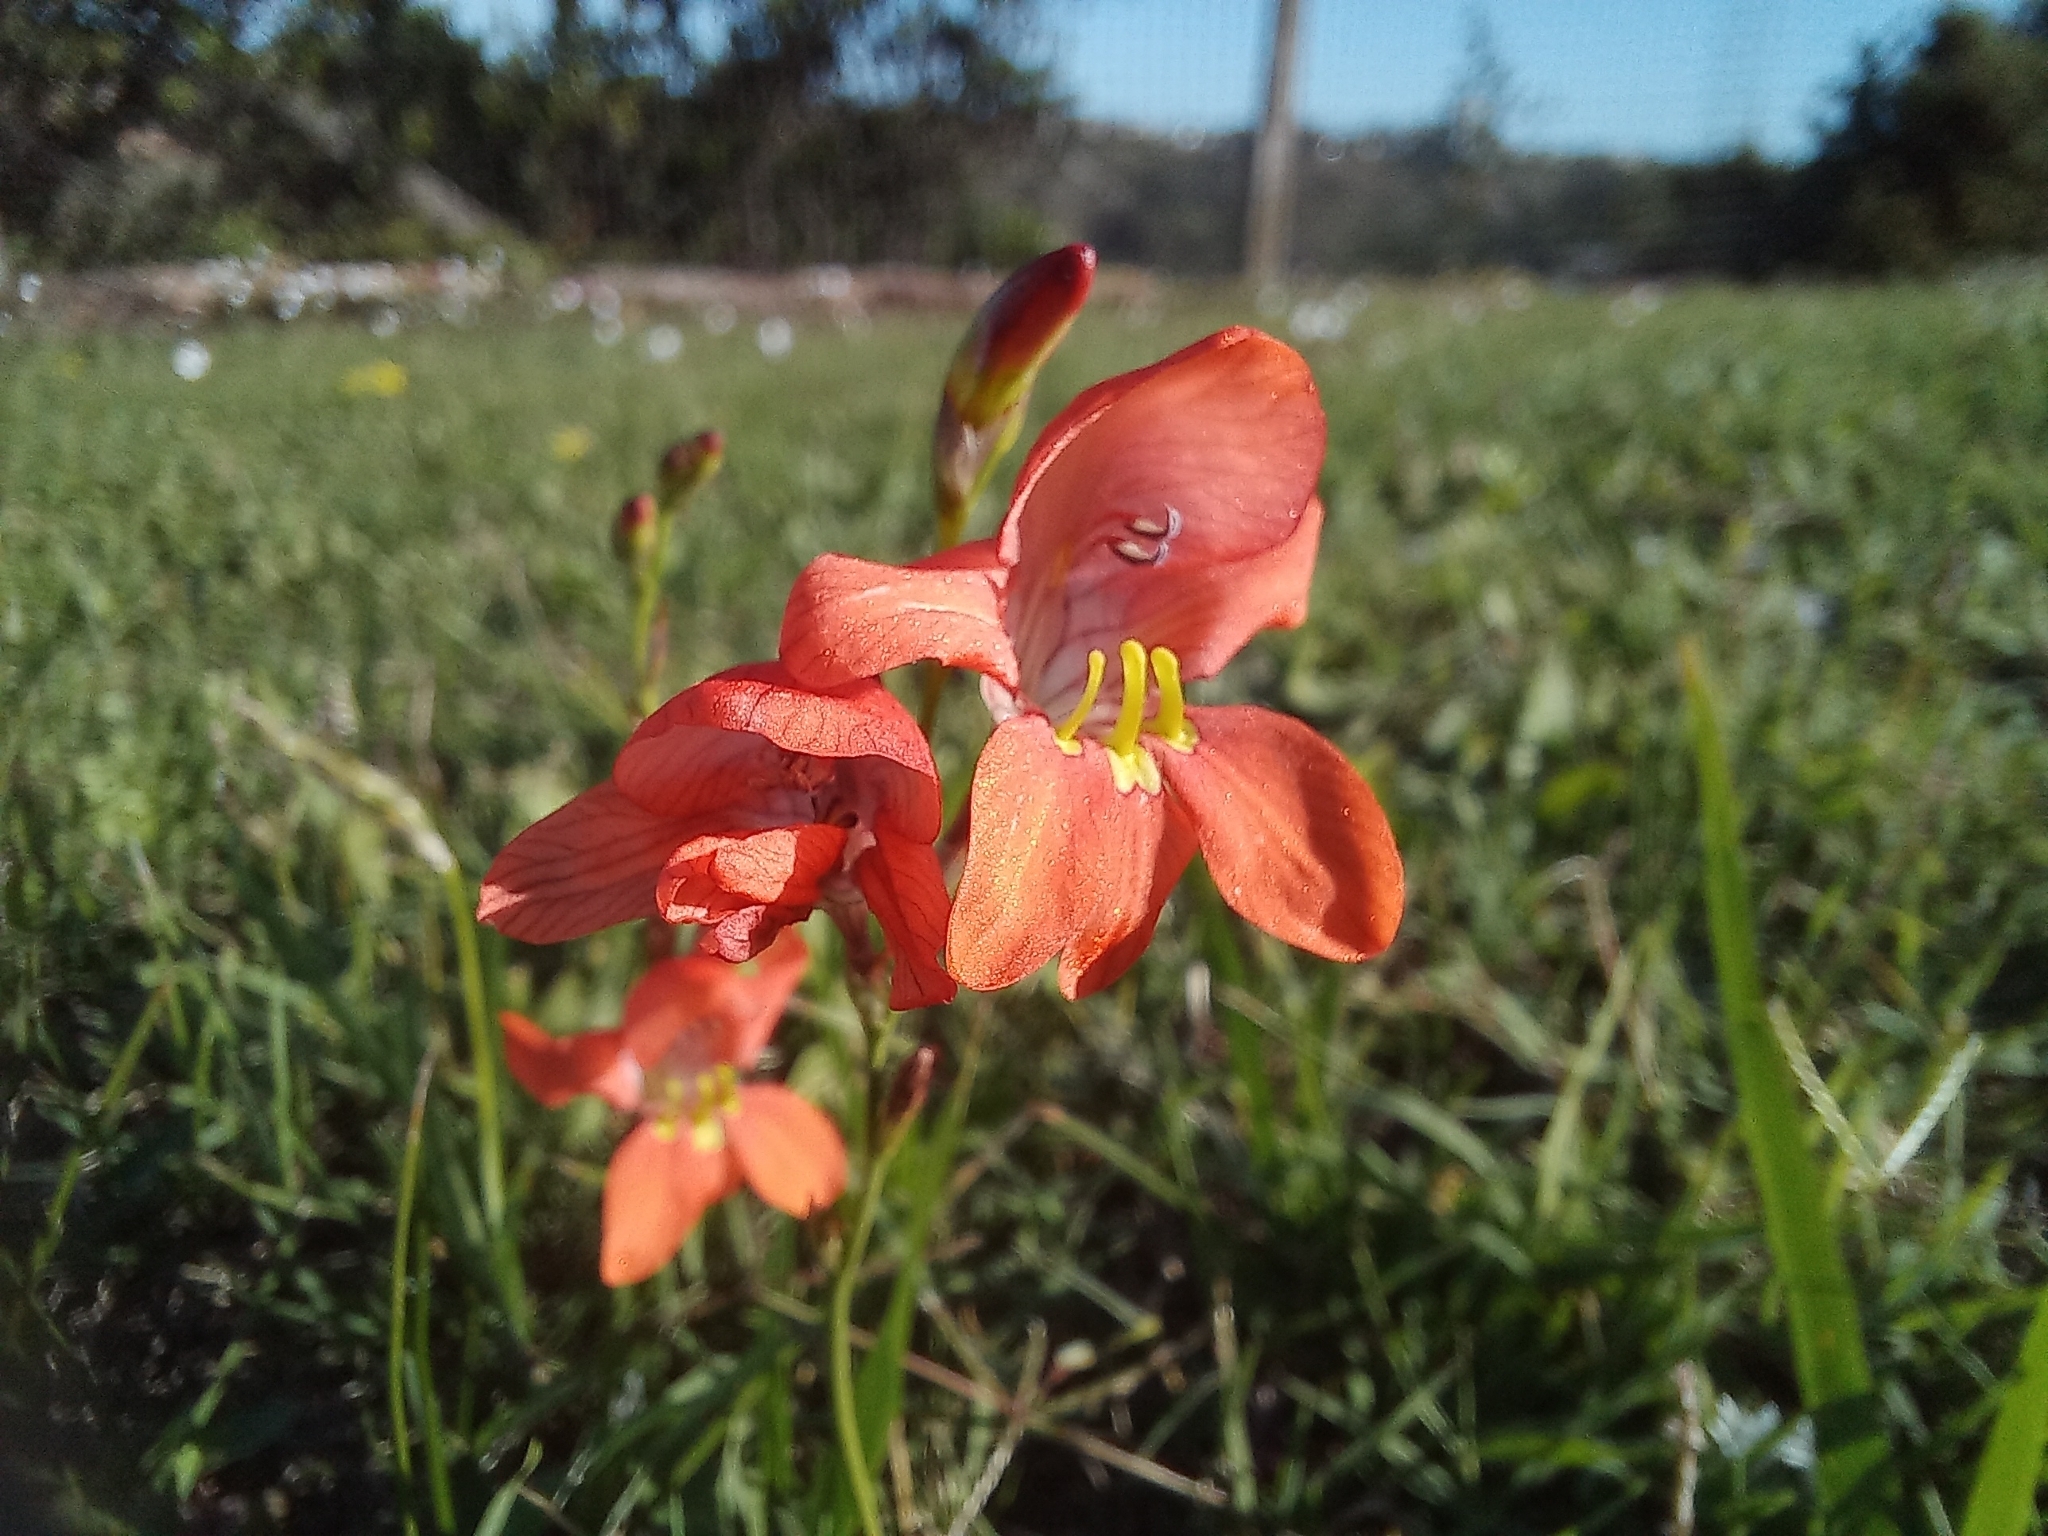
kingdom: Plantae
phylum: Tracheophyta
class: Liliopsida
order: Asparagales
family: Iridaceae
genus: Tritonia
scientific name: Tritonia laxifolia
